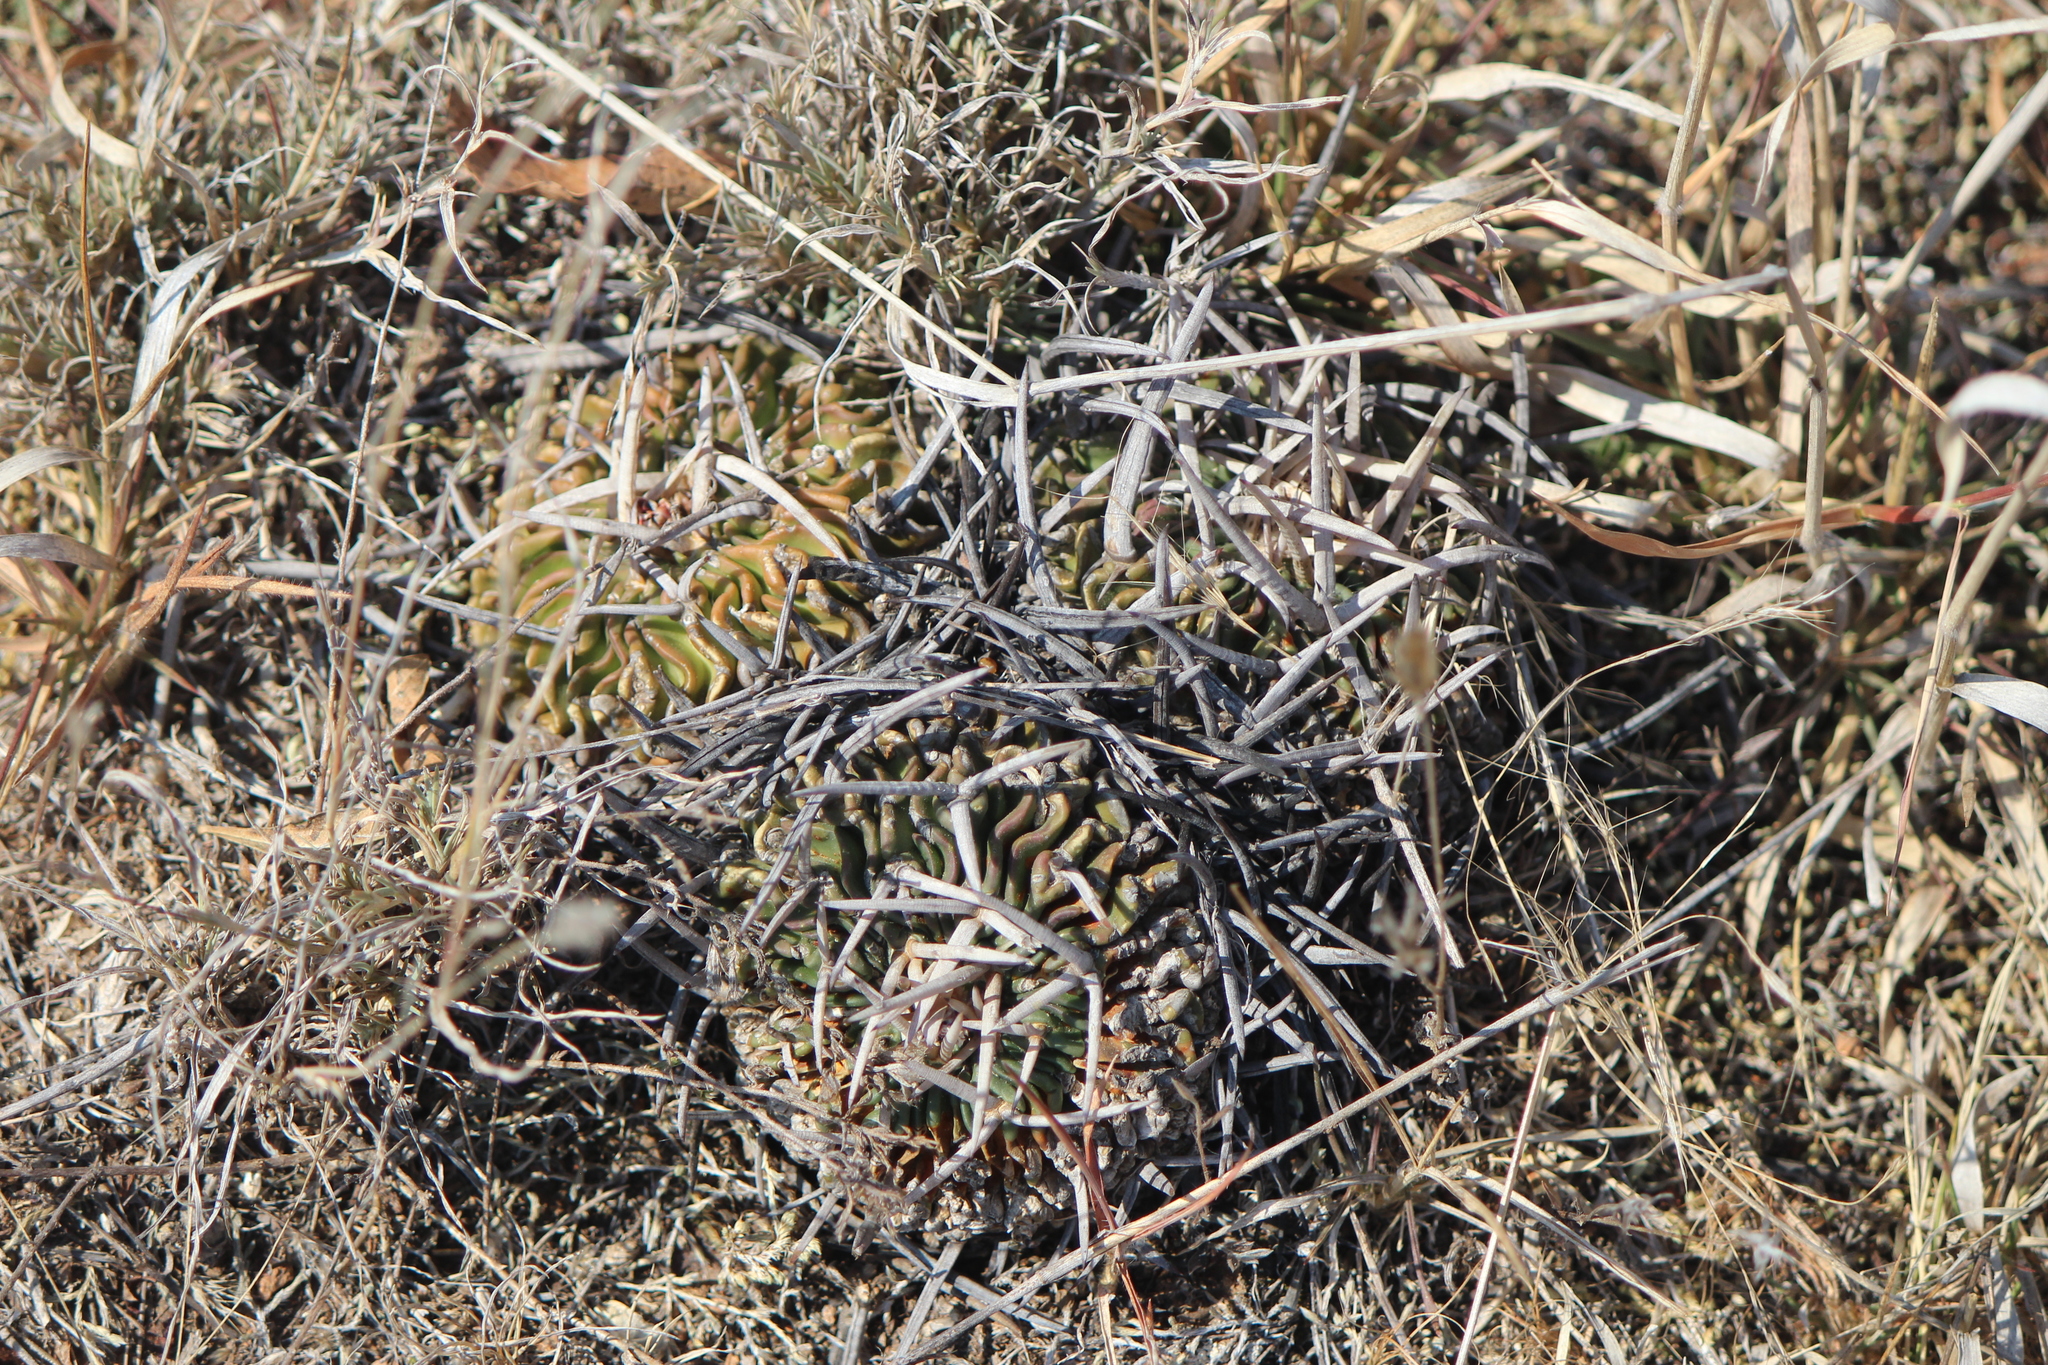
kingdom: Plantae
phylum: Tracheophyta
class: Magnoliopsida
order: Caryophyllales
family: Cactaceae
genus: Stenocactus
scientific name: Stenocactus obvallatus
